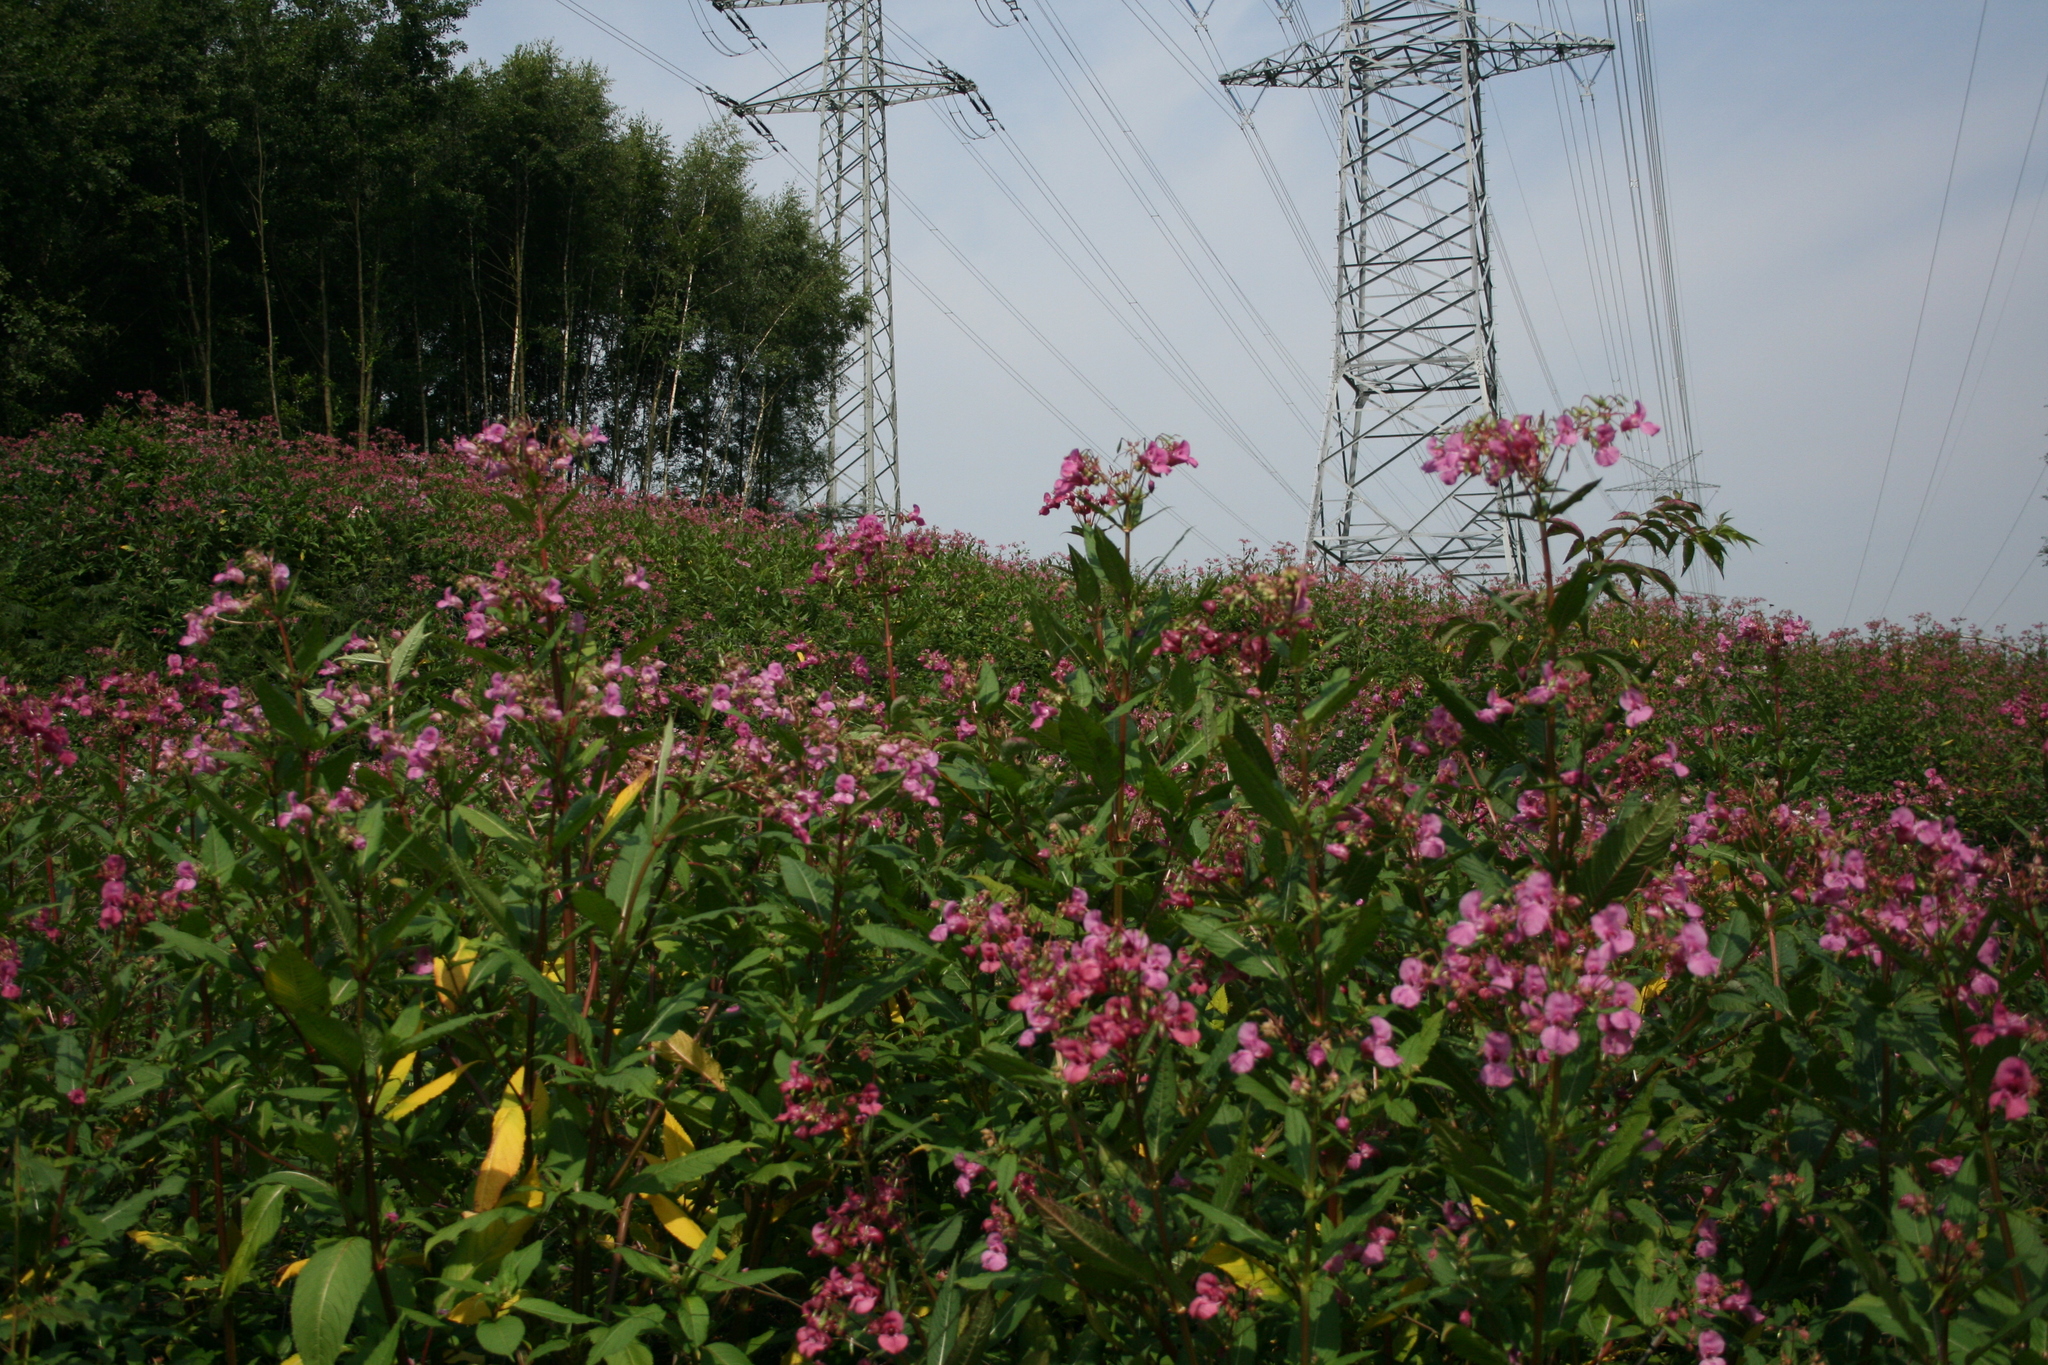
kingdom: Plantae
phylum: Tracheophyta
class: Magnoliopsida
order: Ericales
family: Balsaminaceae
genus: Impatiens
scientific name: Impatiens glandulifera
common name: Himalayan balsam
